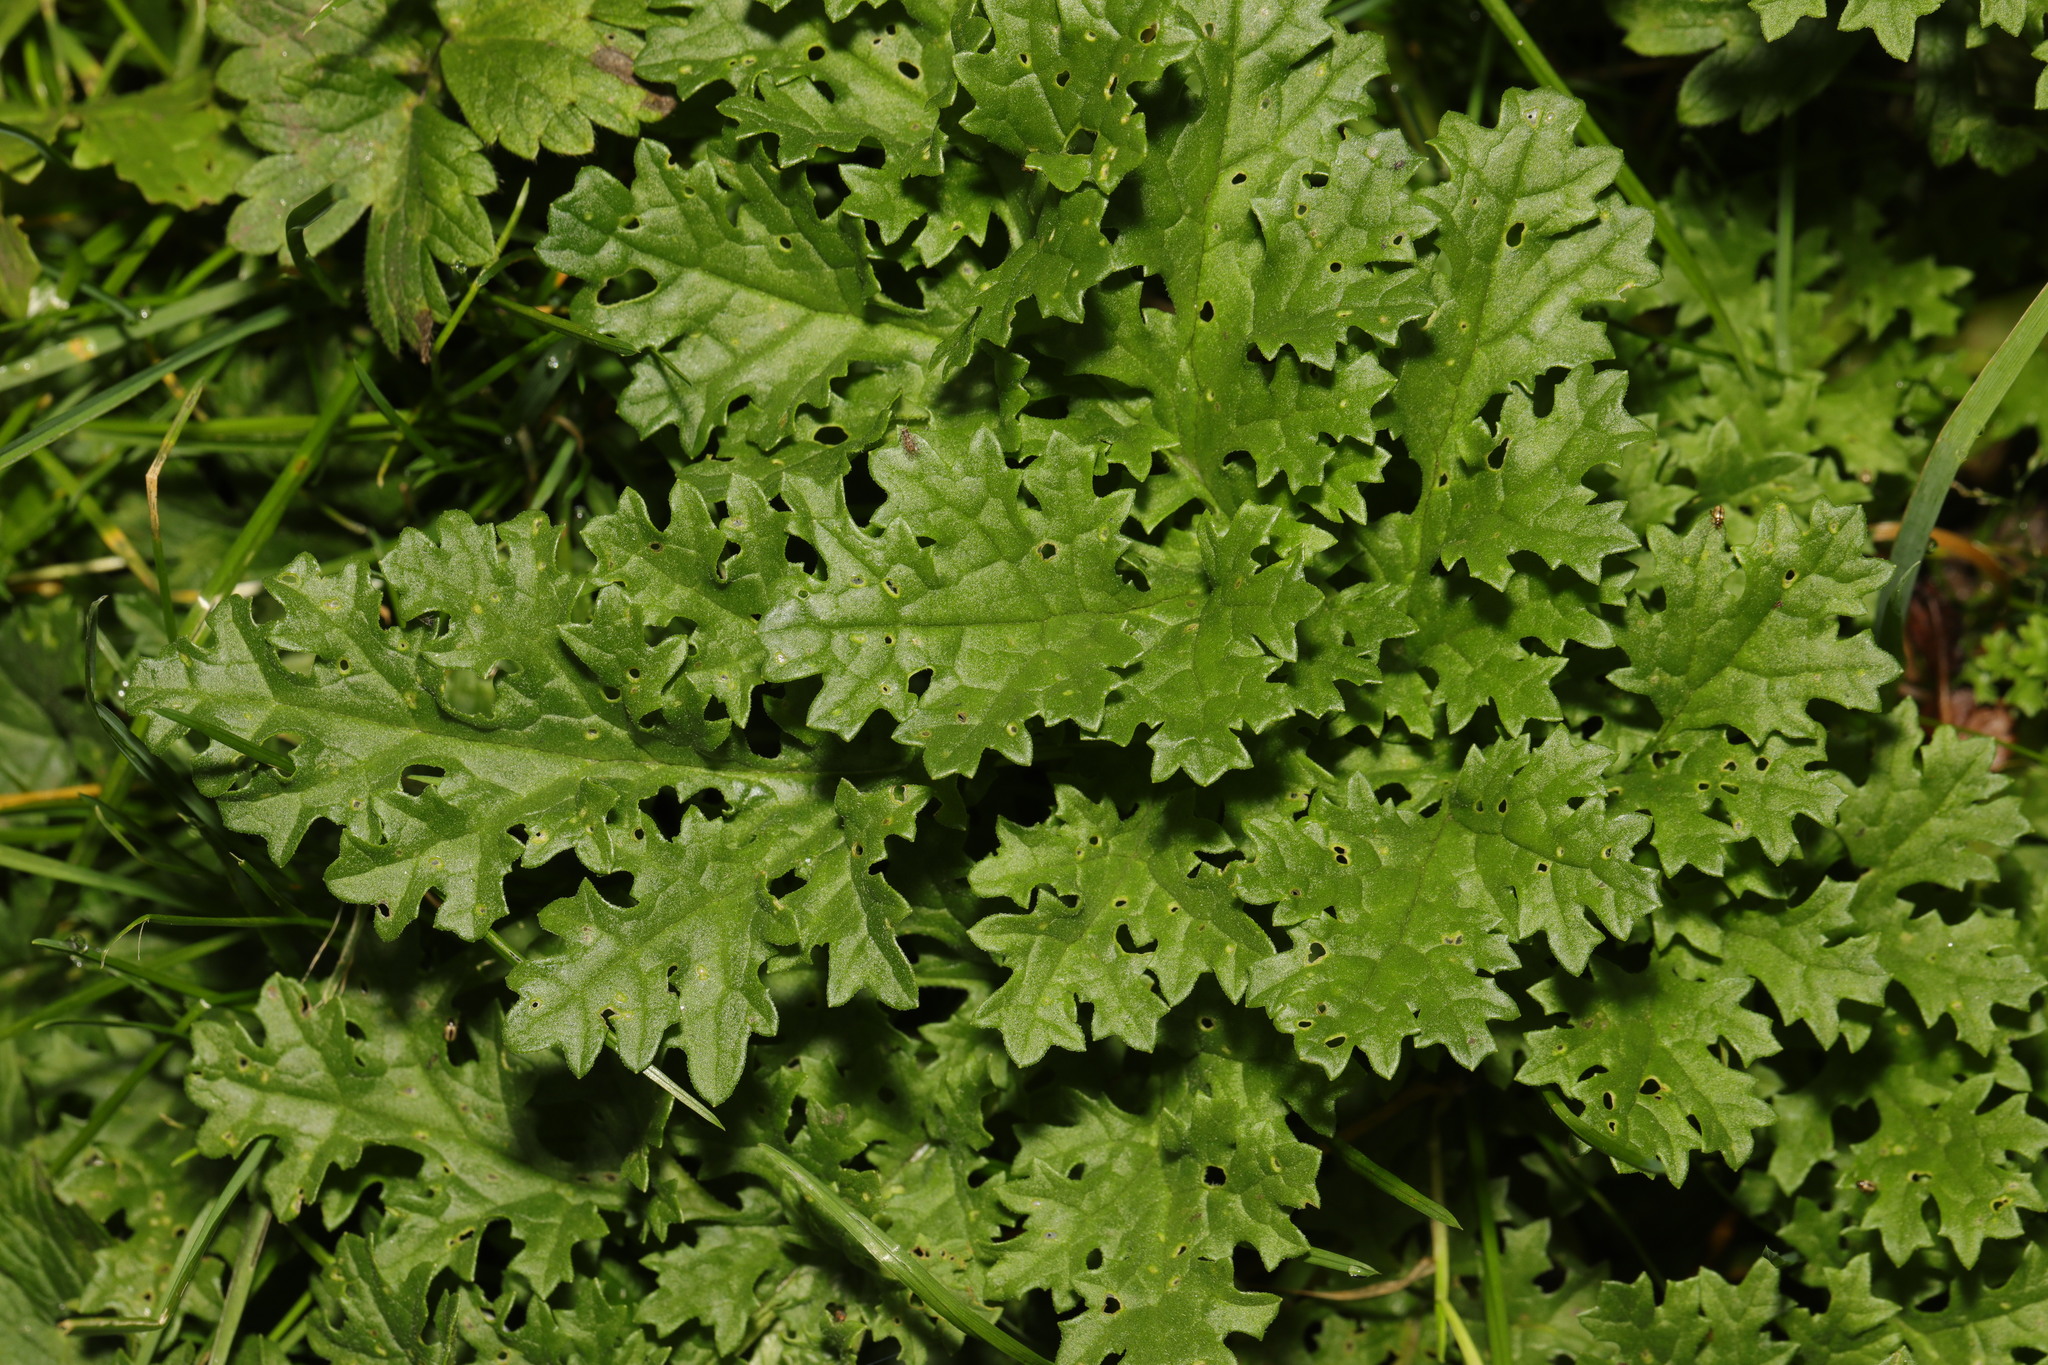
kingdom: Plantae
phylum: Tracheophyta
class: Magnoliopsida
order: Asterales
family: Asteraceae
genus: Jacobaea
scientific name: Jacobaea vulgaris
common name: Stinking willie
